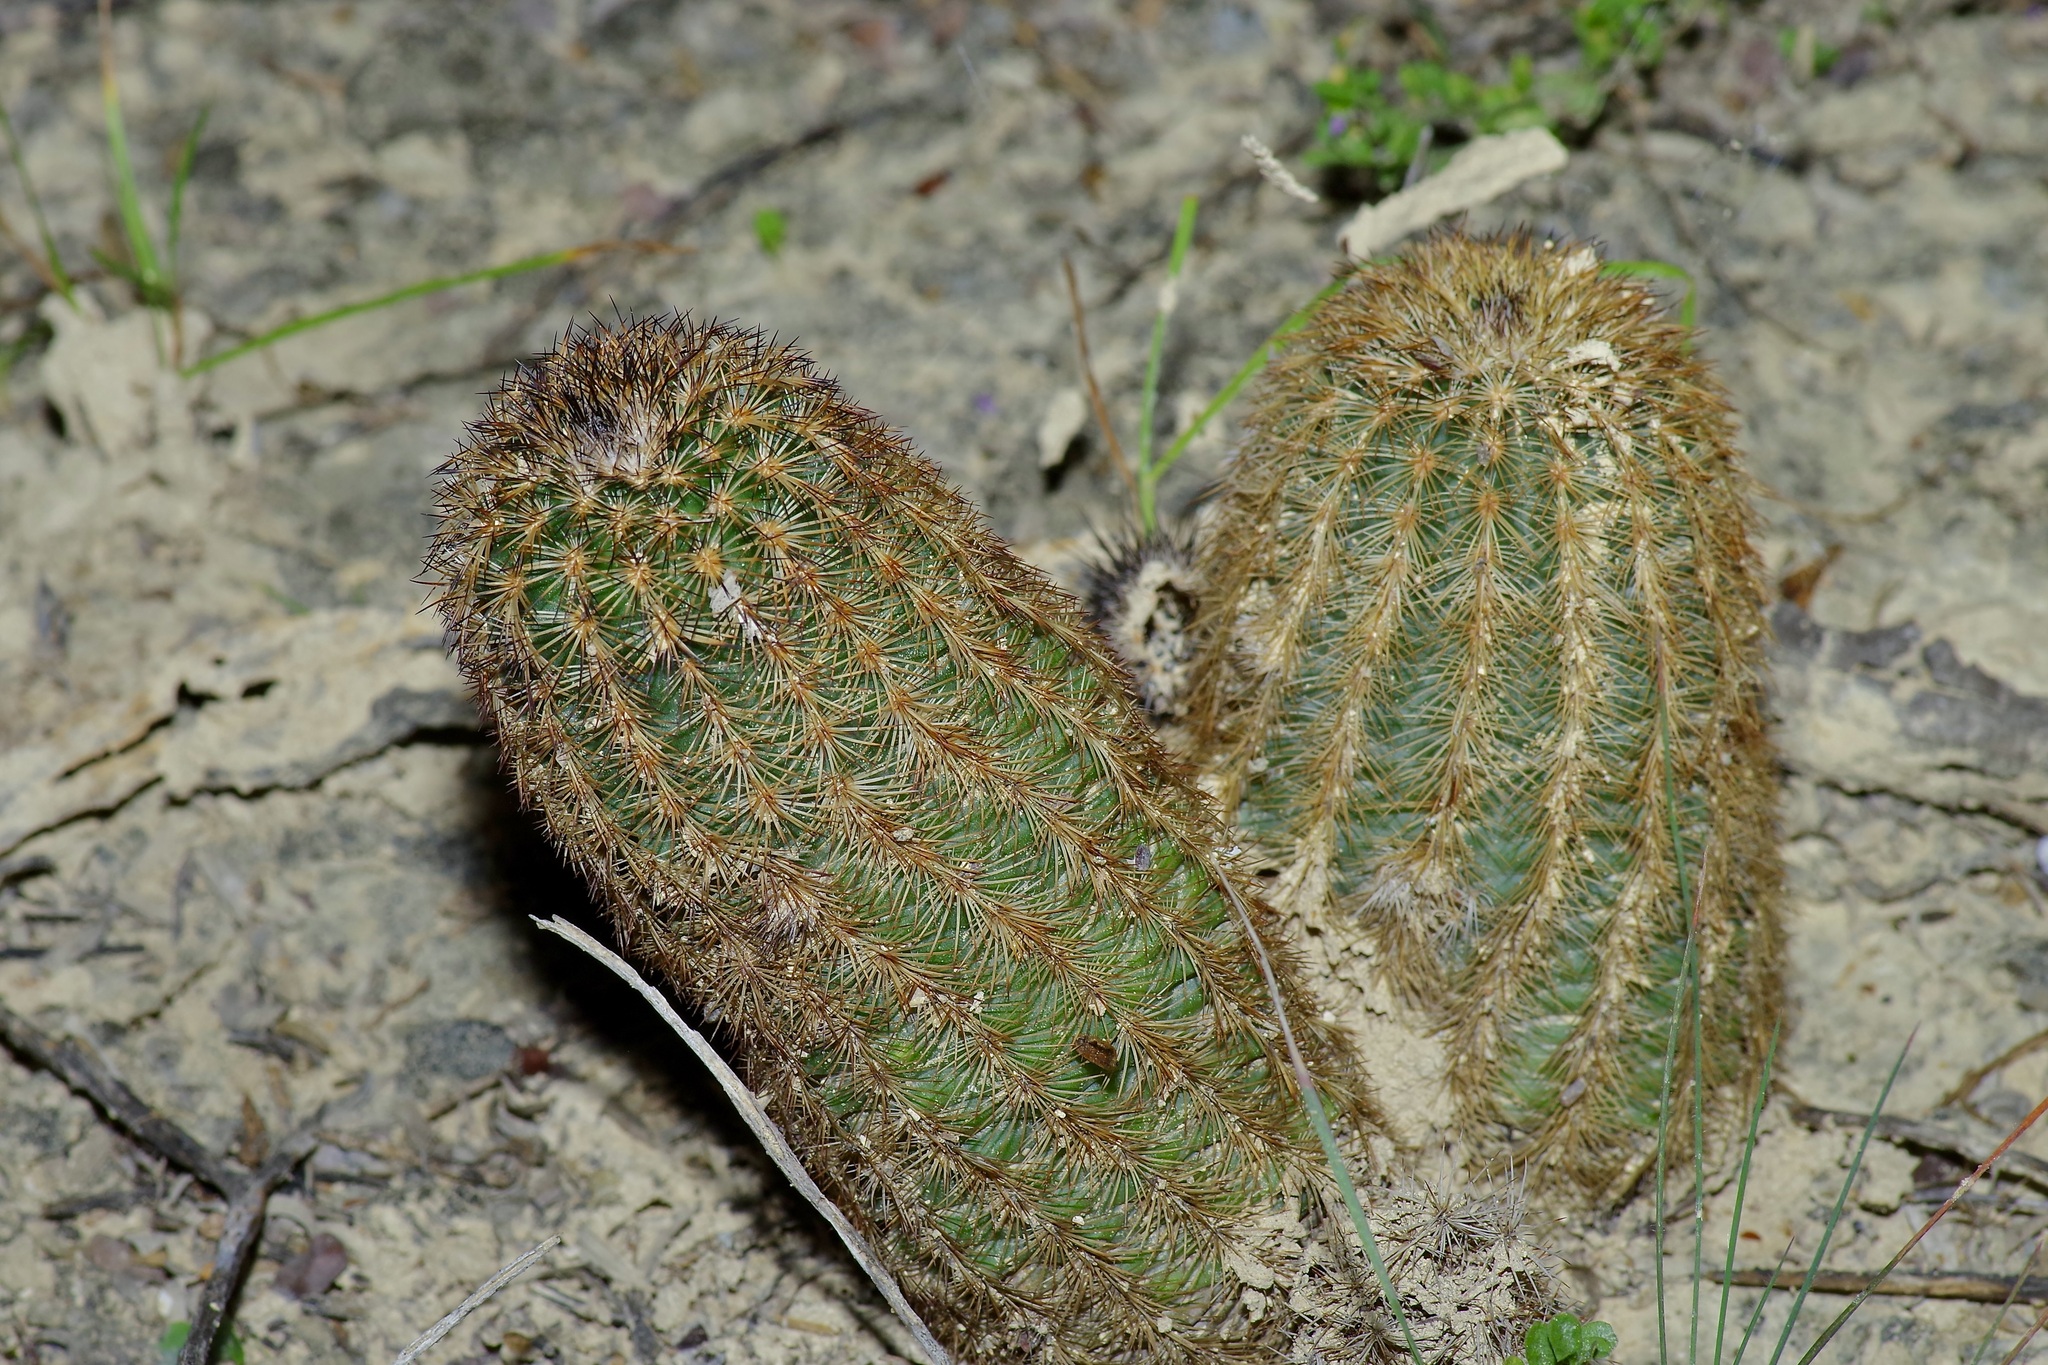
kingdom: Plantae
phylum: Tracheophyta
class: Magnoliopsida
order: Caryophyllales
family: Cactaceae
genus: Echinocereus
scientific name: Echinocereus reichenbachii
